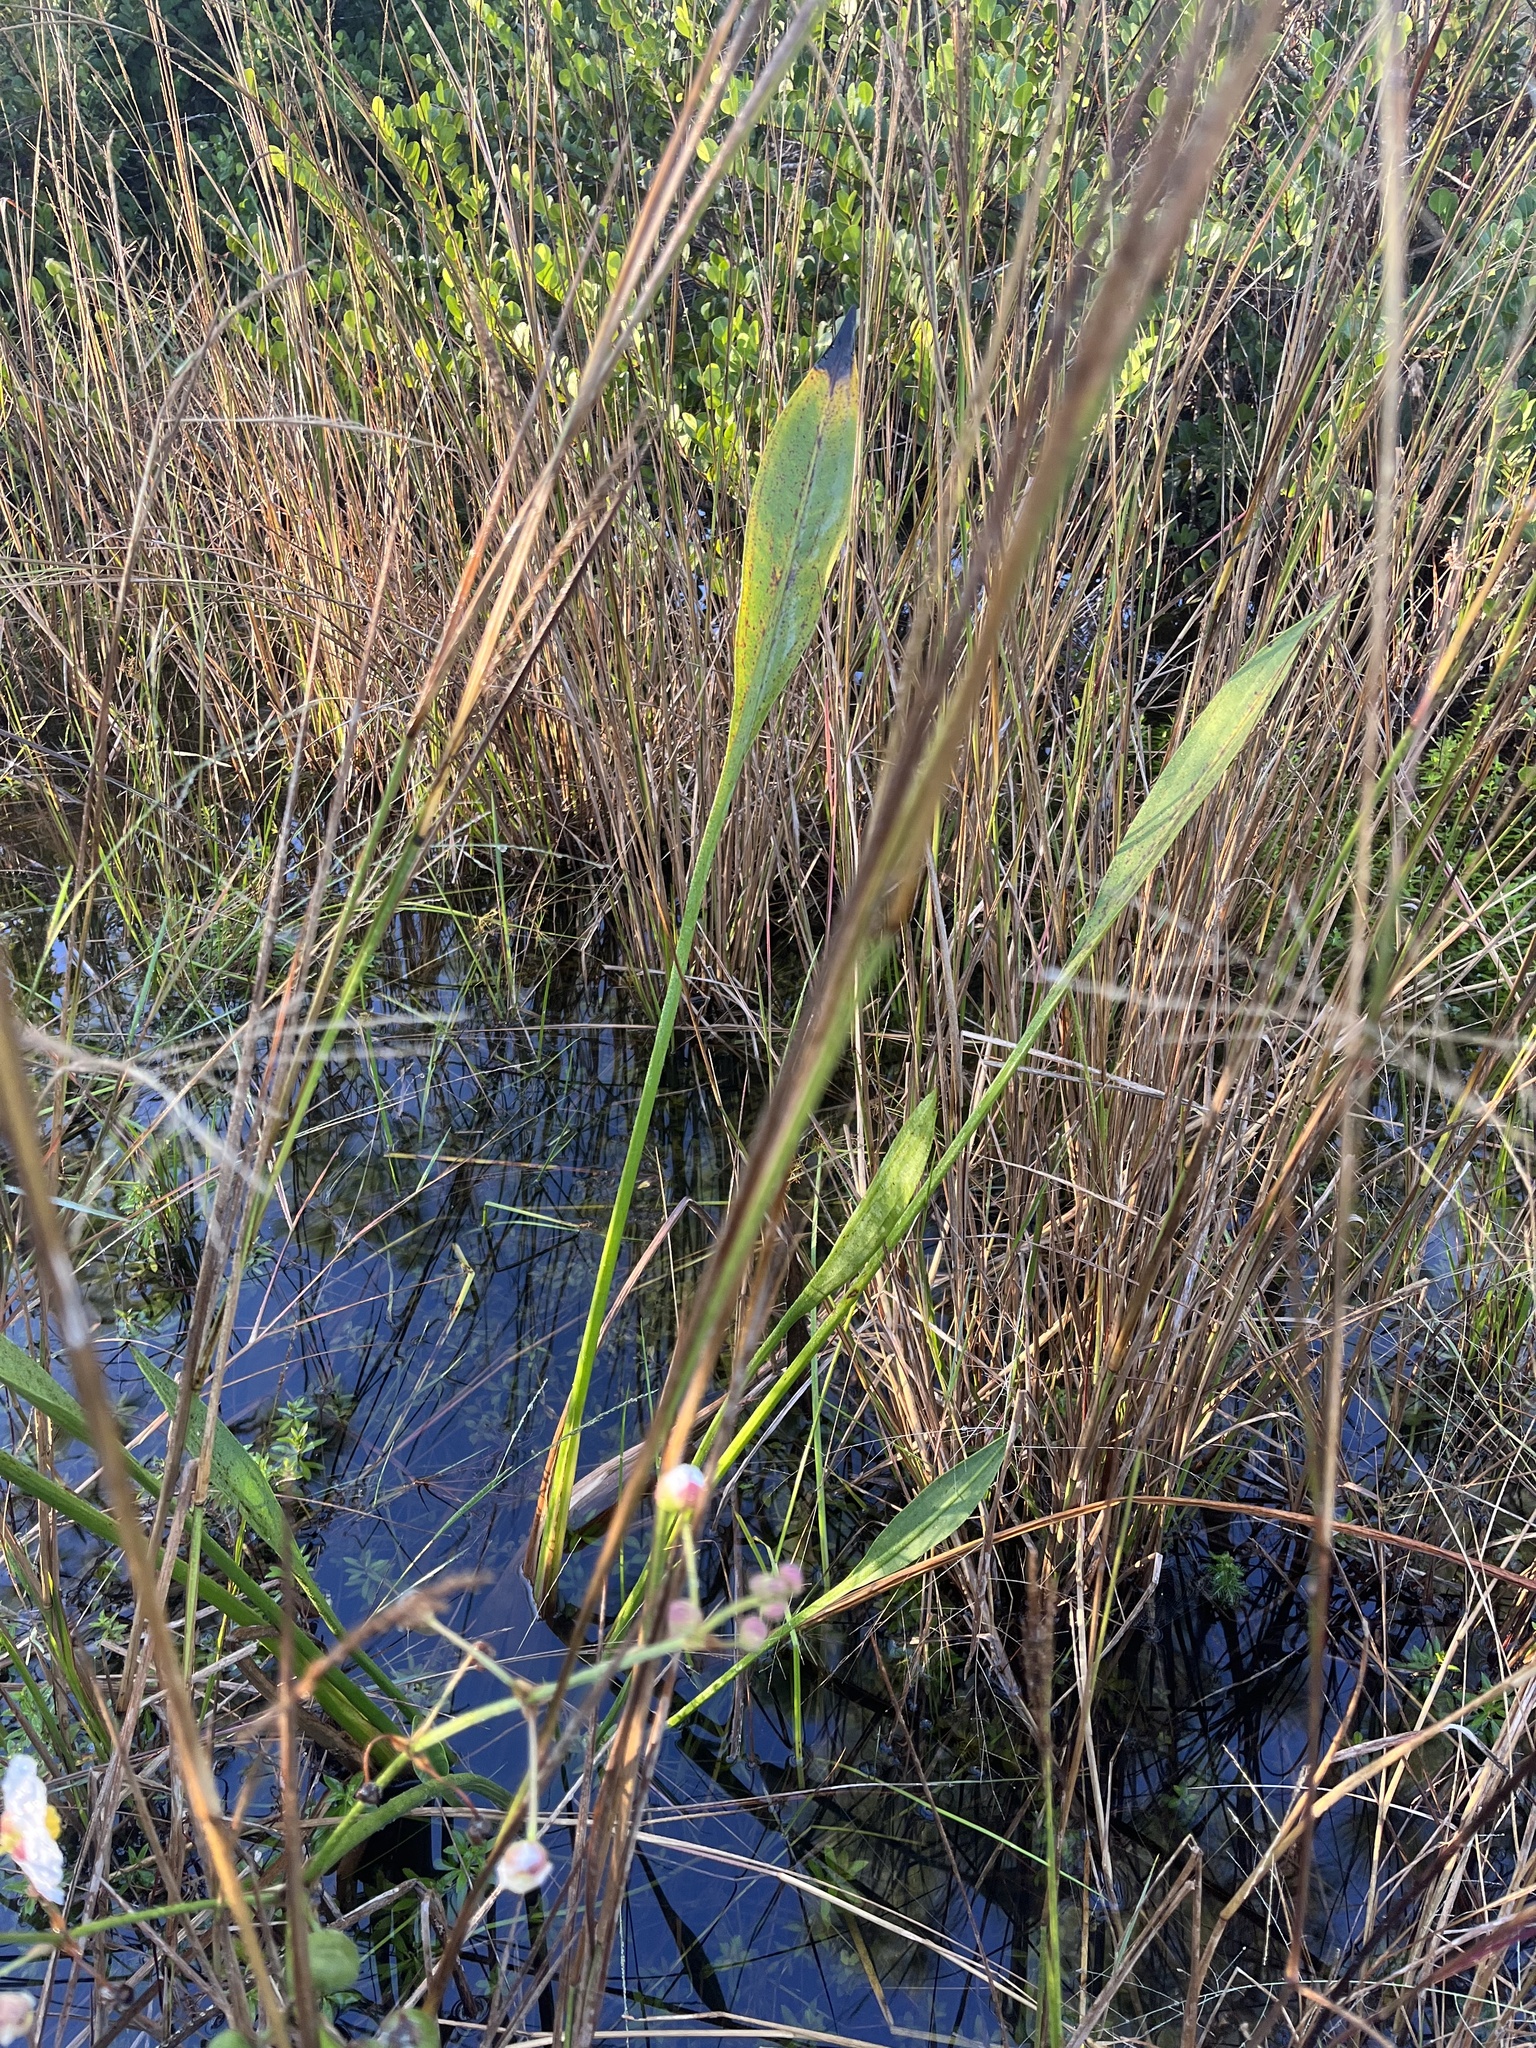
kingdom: Plantae
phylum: Tracheophyta
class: Liliopsida
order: Alismatales
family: Alismataceae
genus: Sagittaria
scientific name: Sagittaria lancifolia
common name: Lance-leaf arrowhead
